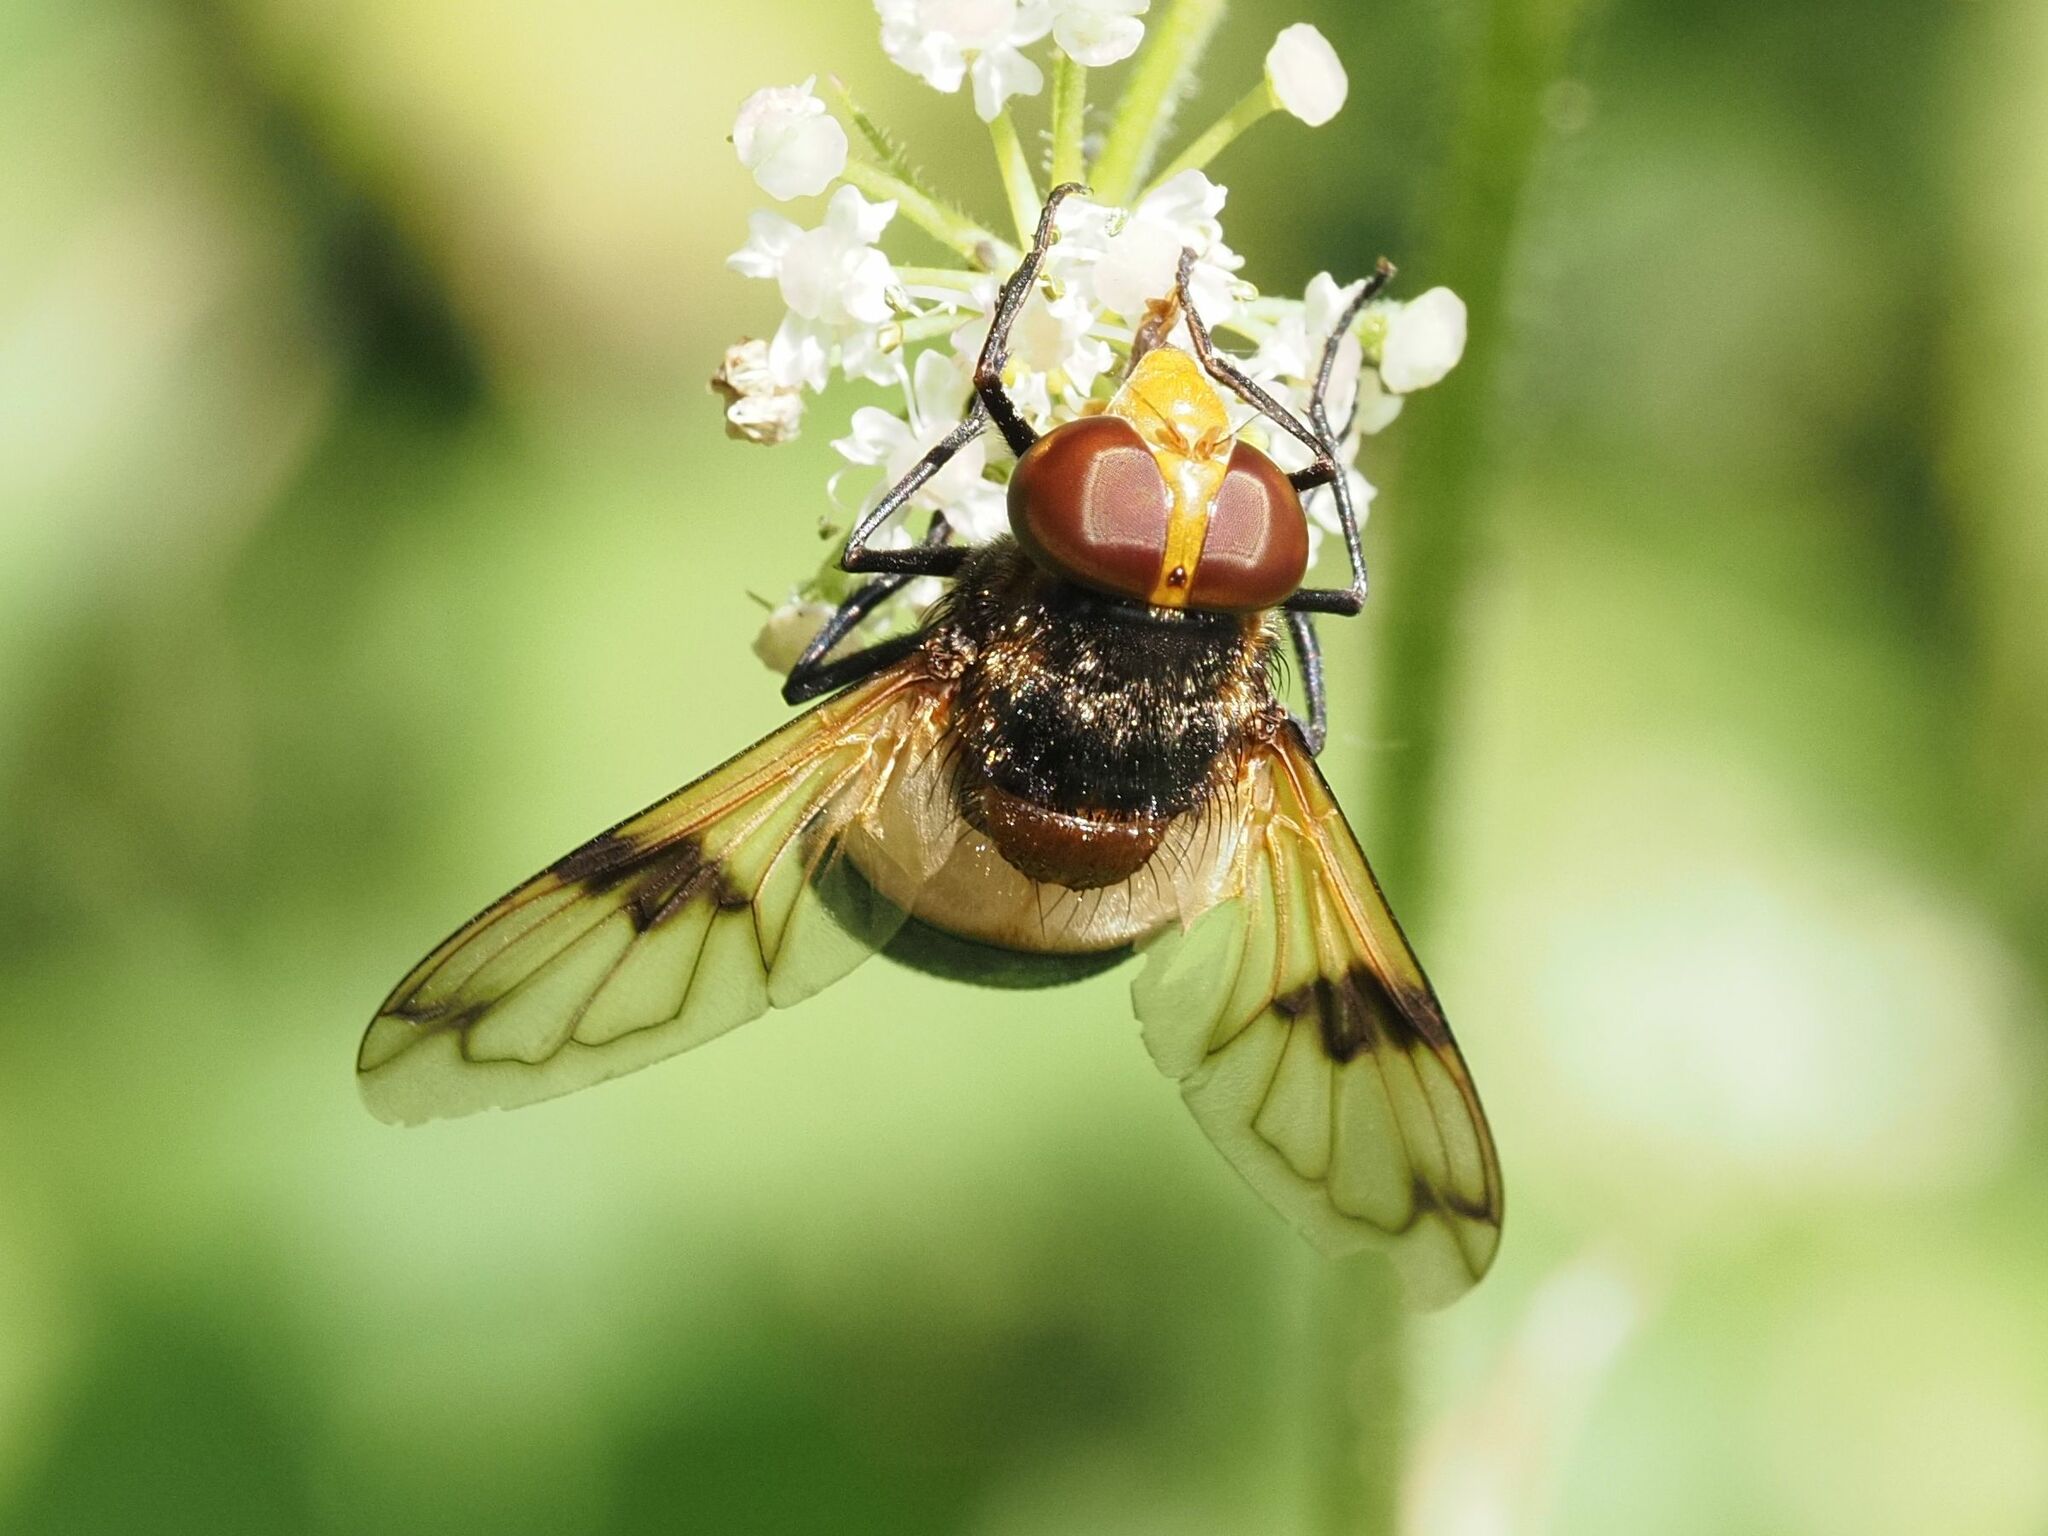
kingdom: Animalia
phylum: Arthropoda
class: Insecta
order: Diptera
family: Syrphidae
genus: Volucella
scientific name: Volucella pellucens
